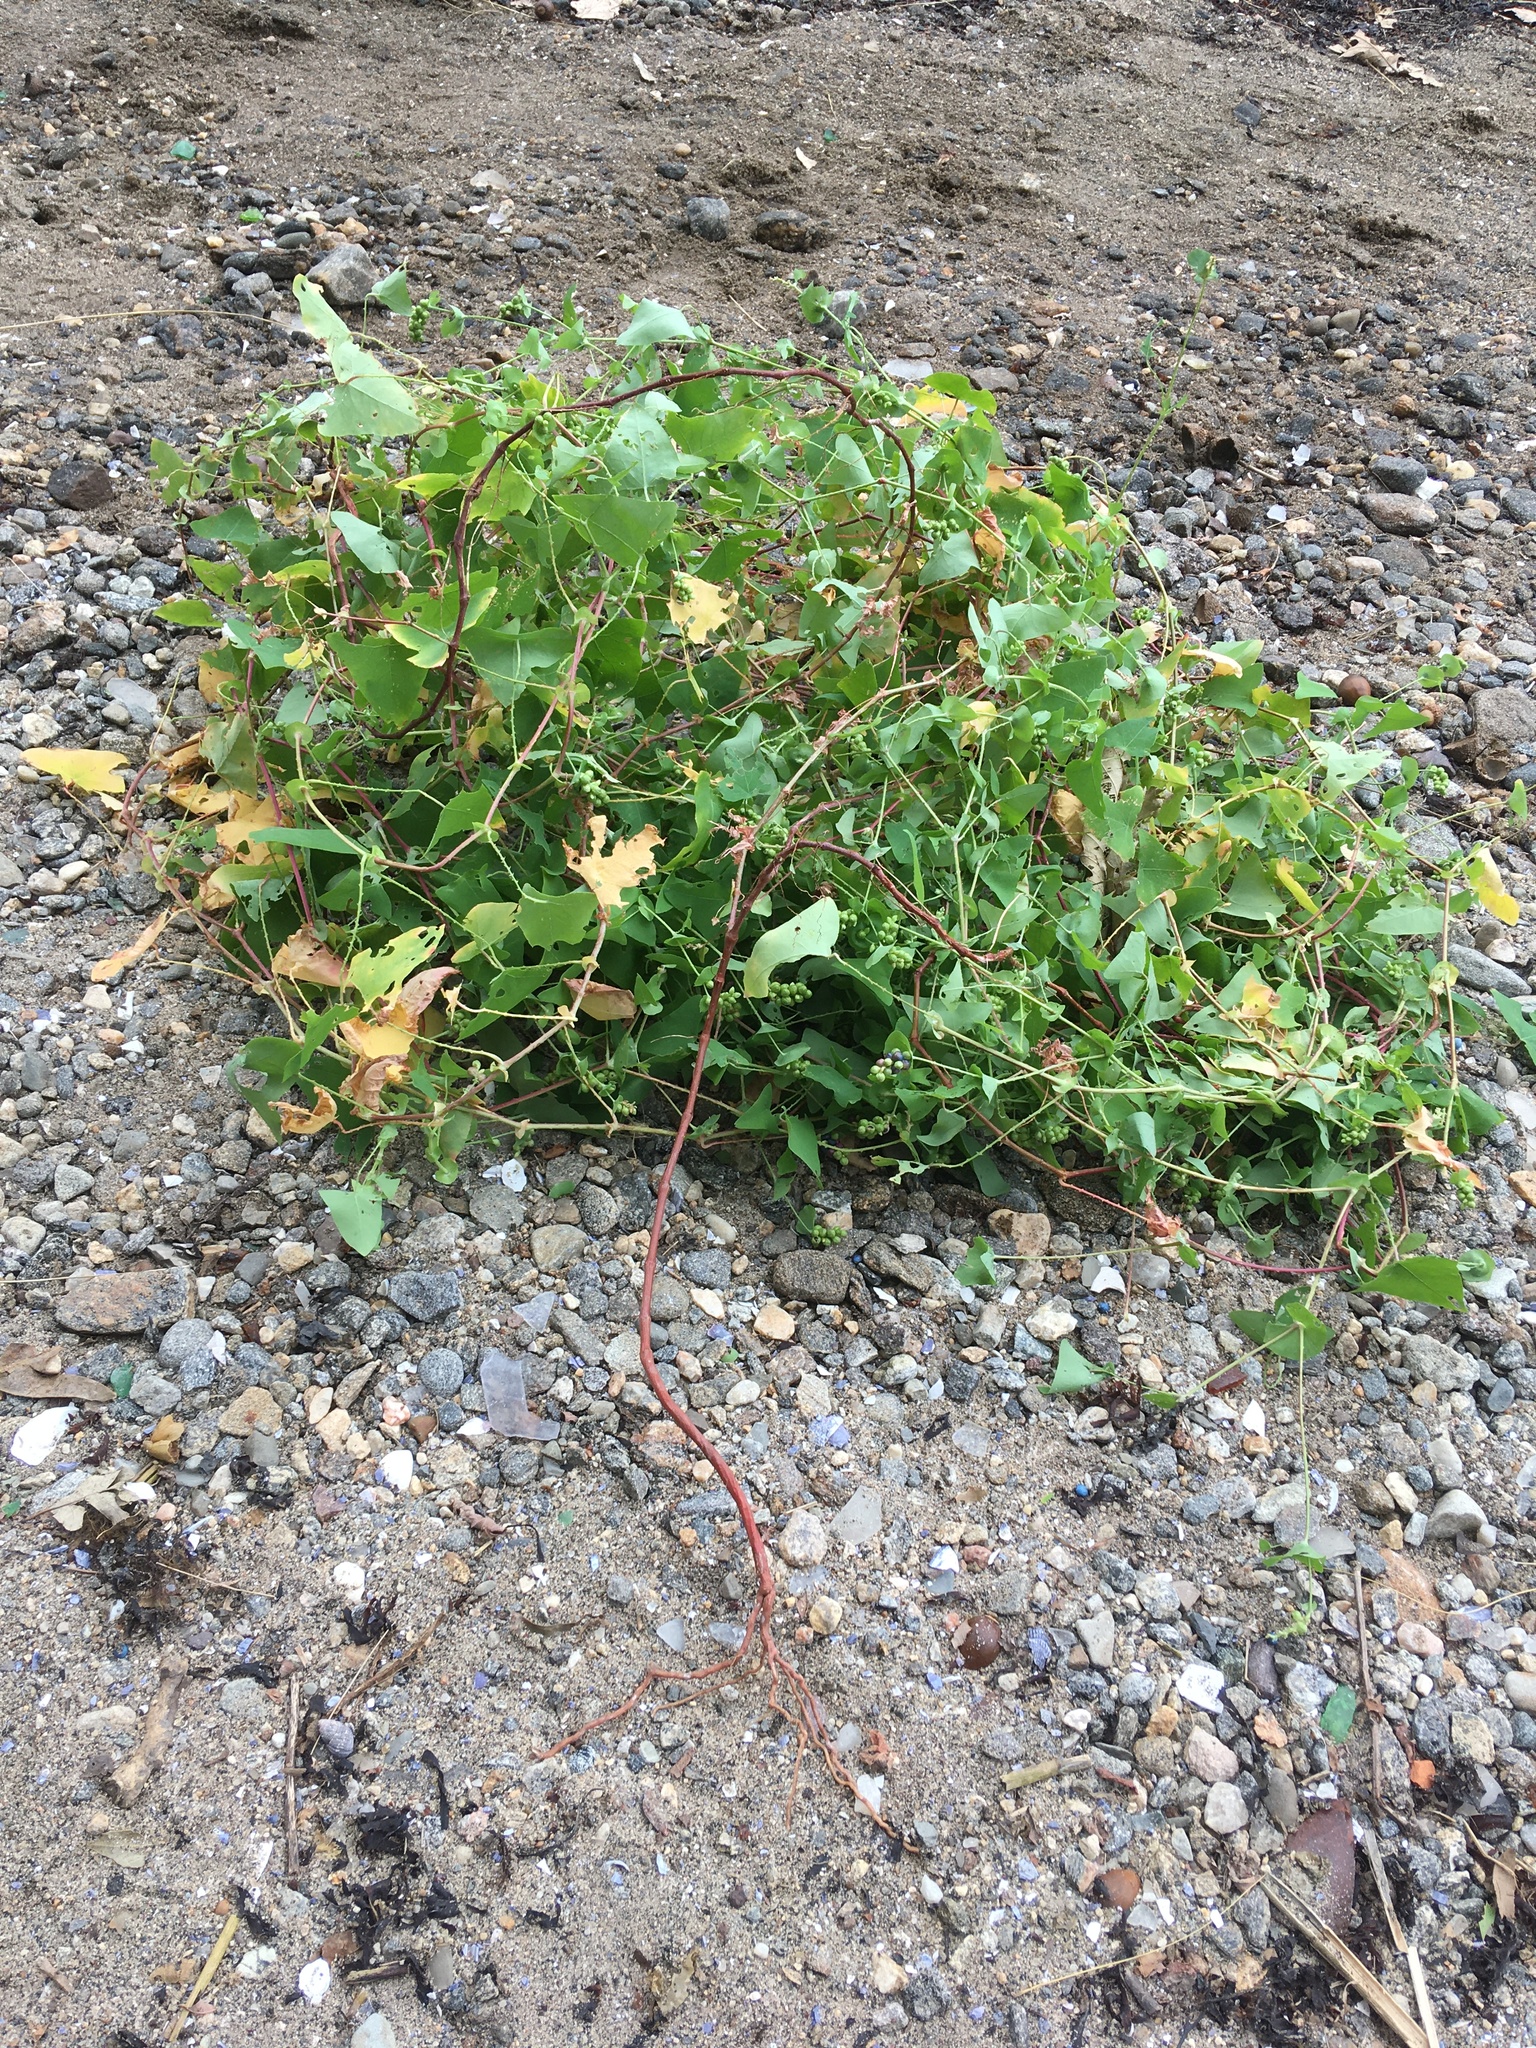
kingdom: Plantae
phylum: Tracheophyta
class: Magnoliopsida
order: Caryophyllales
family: Polygonaceae
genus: Persicaria
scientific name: Persicaria perfoliata
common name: Asiatic tearthumb
